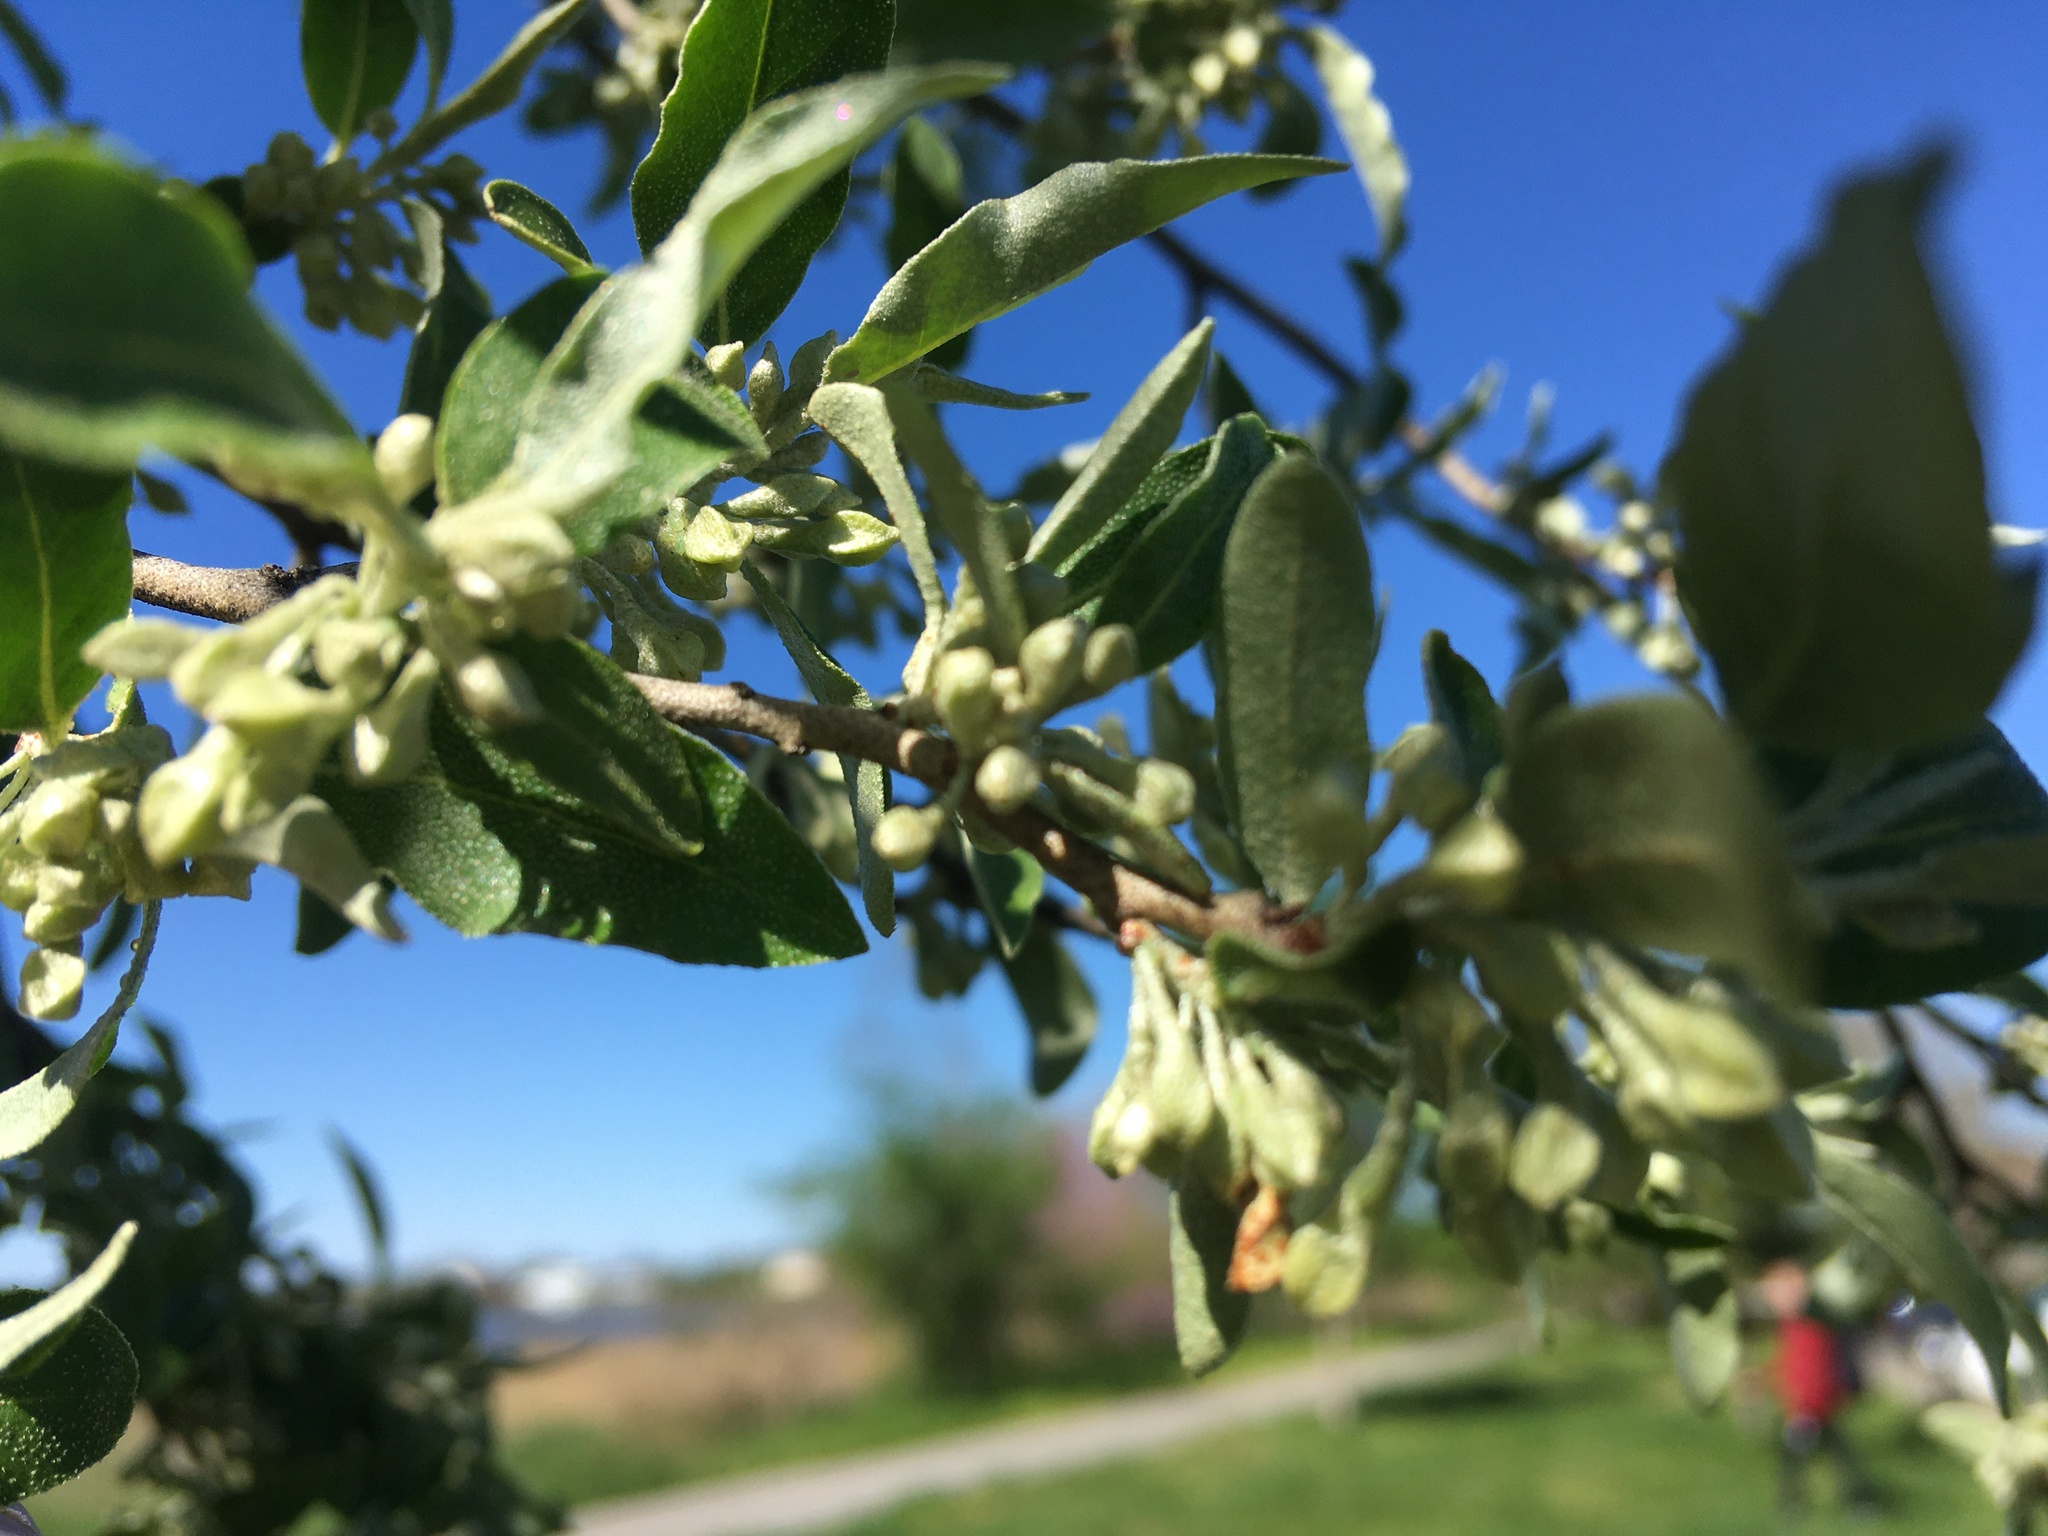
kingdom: Plantae
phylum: Tracheophyta
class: Magnoliopsida
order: Rosales
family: Elaeagnaceae
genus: Elaeagnus
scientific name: Elaeagnus umbellata
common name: Autumn olive
